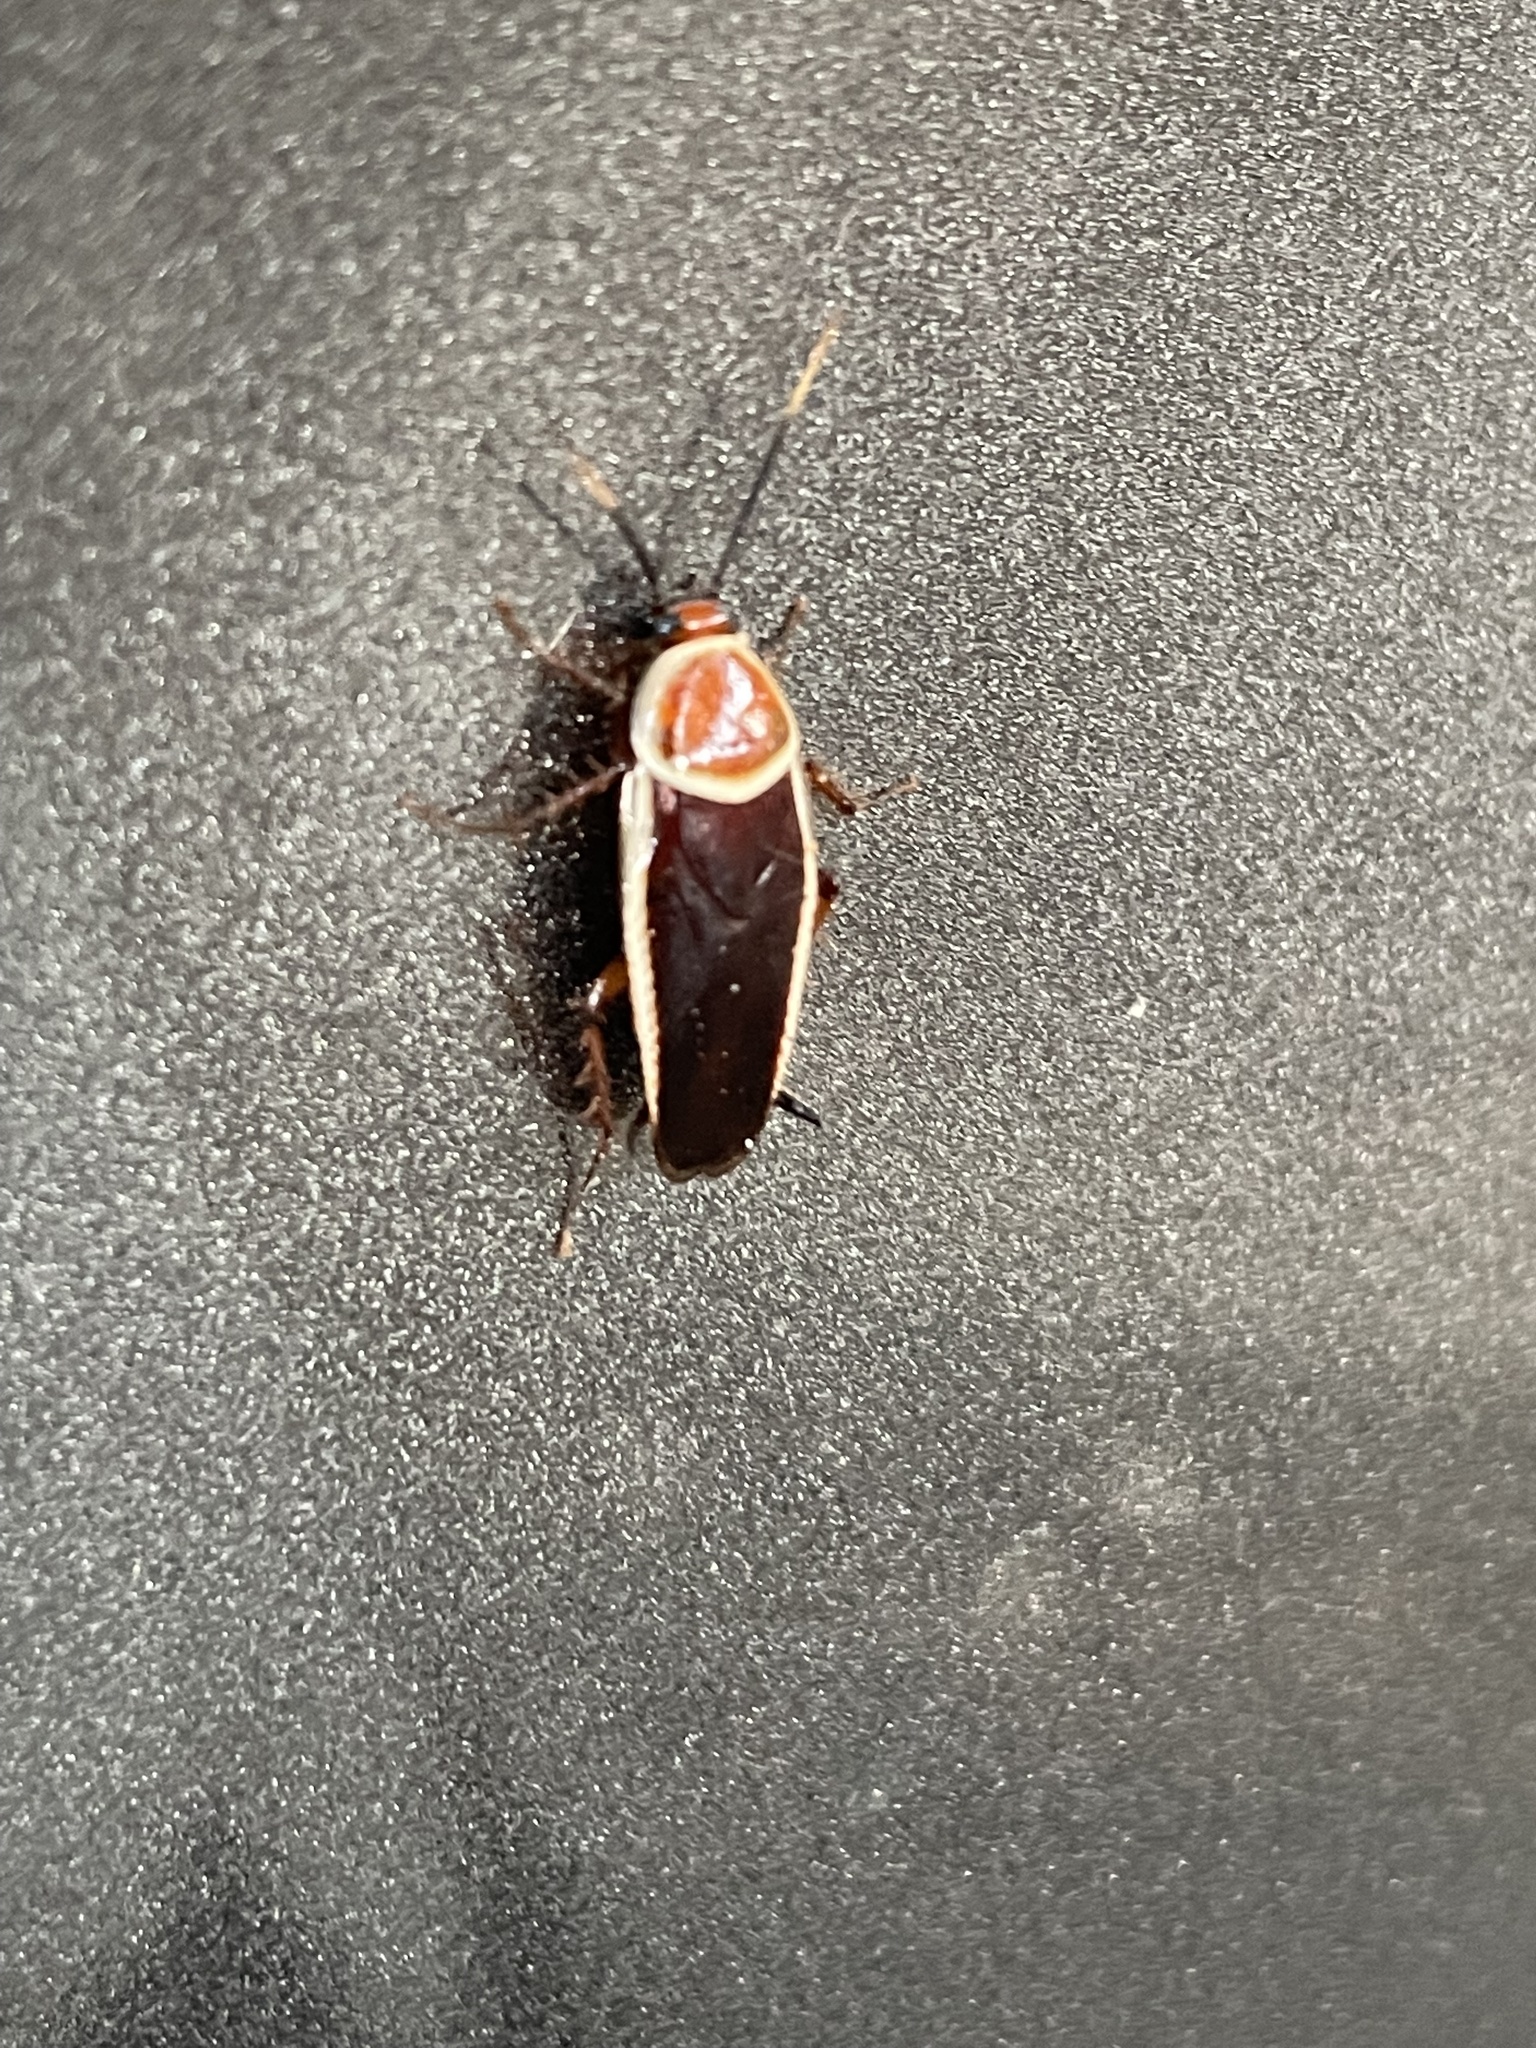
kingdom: Animalia
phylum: Arthropoda
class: Insecta
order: Blattodea
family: Ectobiidae
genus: Pseudomops
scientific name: Pseudomops septentrionalis
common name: Pale-bordered field cockroach
